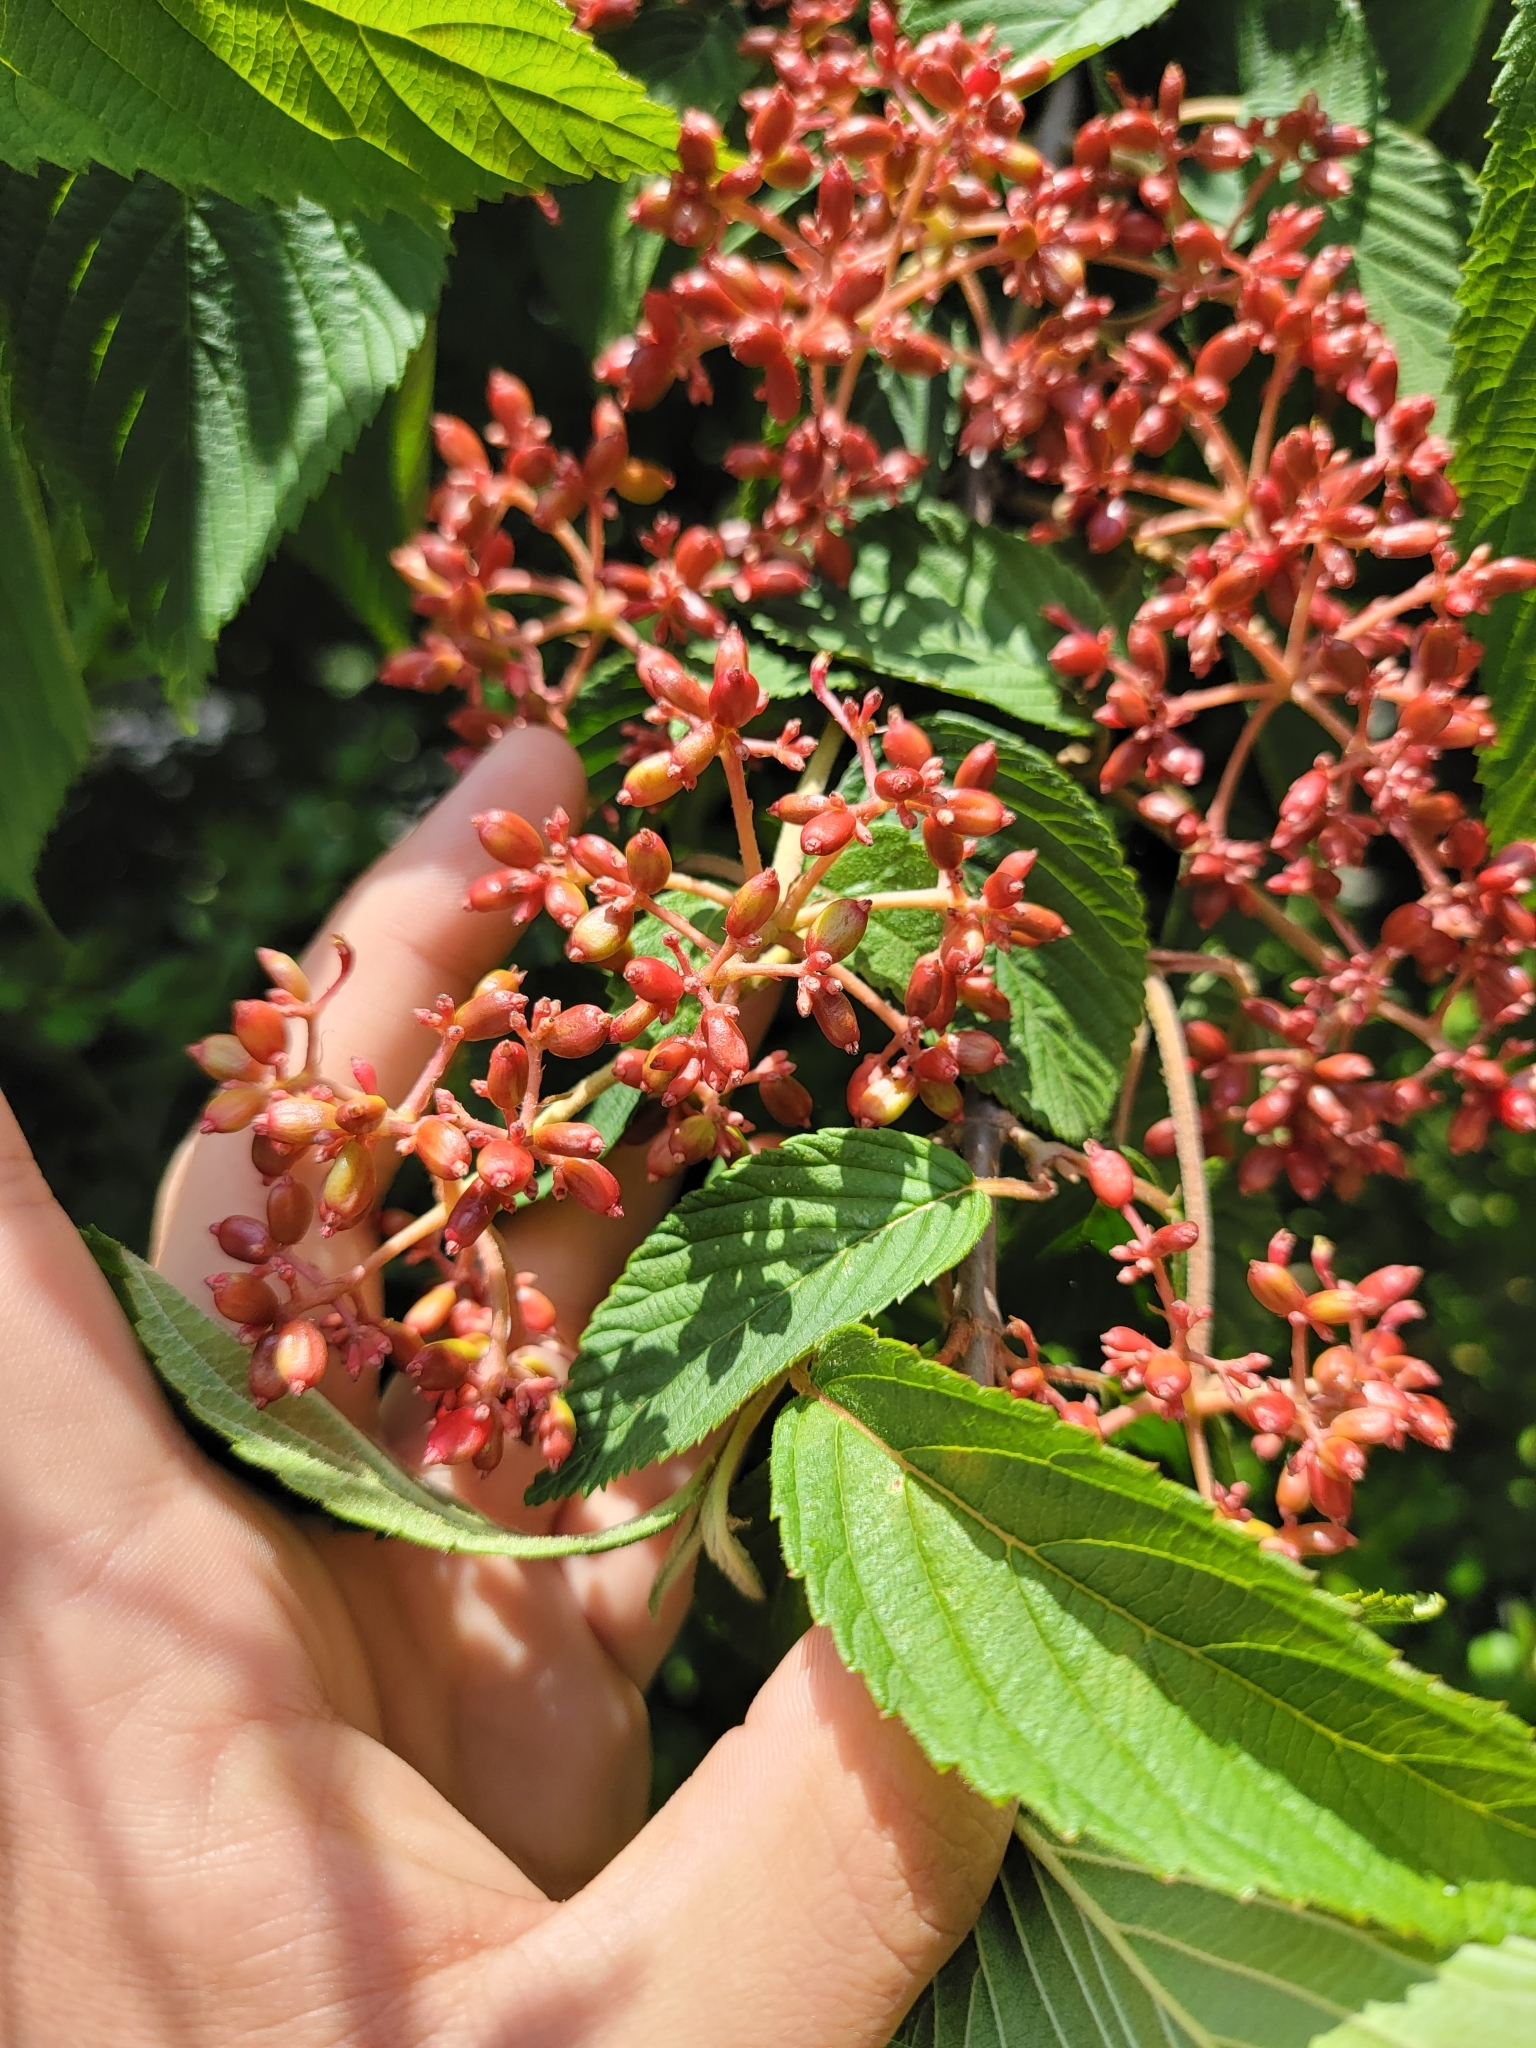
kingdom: Plantae
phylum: Tracheophyta
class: Magnoliopsida
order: Dipsacales
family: Viburnaceae
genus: Viburnum
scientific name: Viburnum plicatum
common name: Japanese snowball
